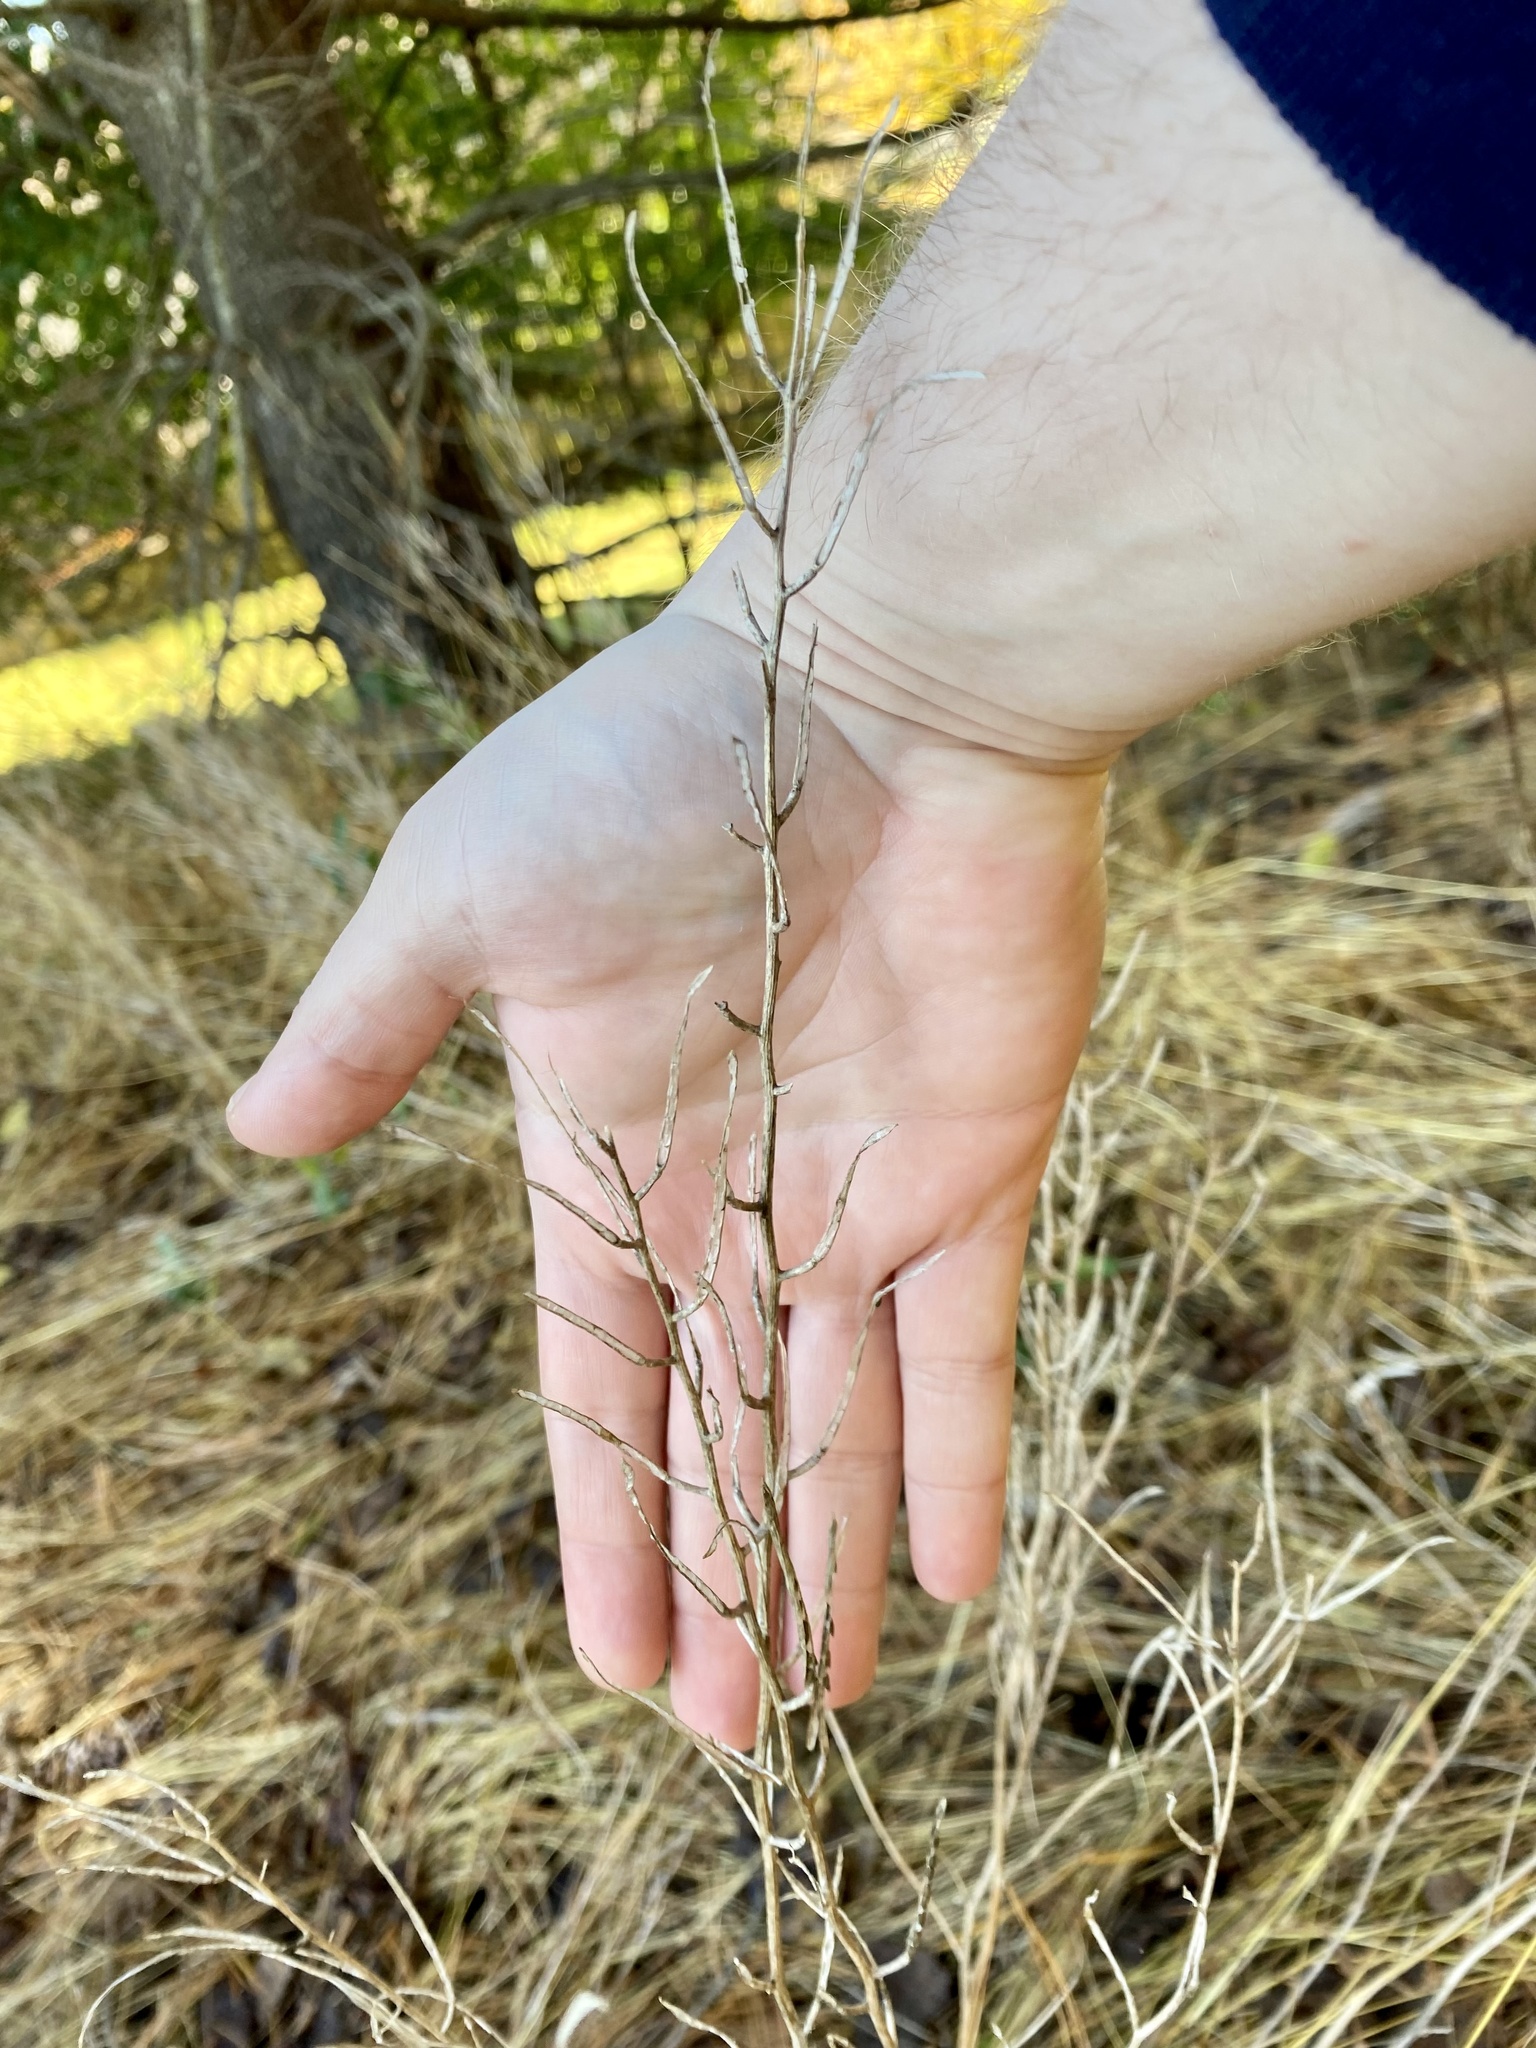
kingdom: Plantae
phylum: Tracheophyta
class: Magnoliopsida
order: Brassicales
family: Brassicaceae
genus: Alliaria
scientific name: Alliaria petiolata
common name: Garlic mustard
